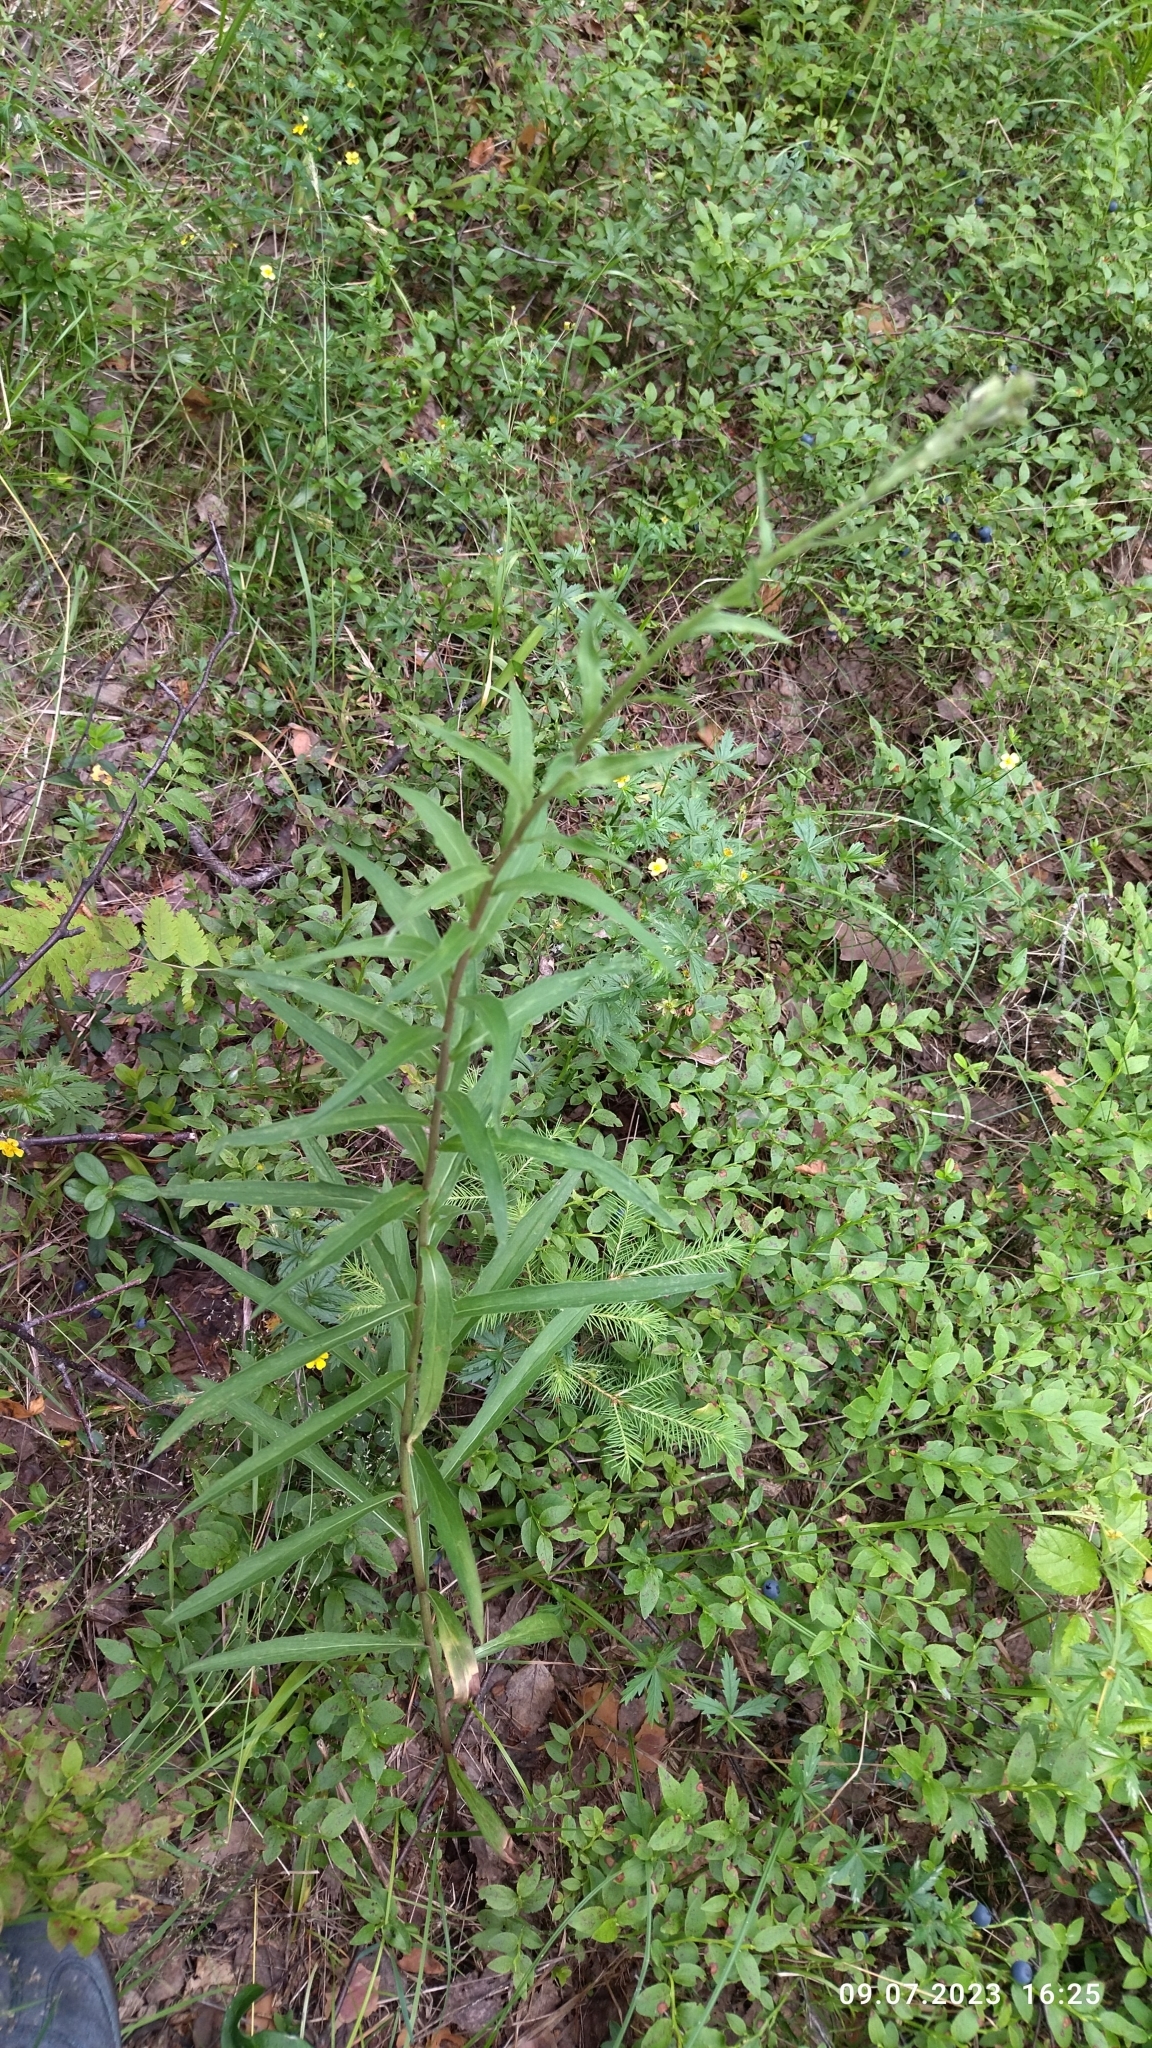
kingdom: Plantae
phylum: Tracheophyta
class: Magnoliopsida
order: Asterales
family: Asteraceae
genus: Hieracium
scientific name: Hieracium umbellatum
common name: Northern hawkweed
